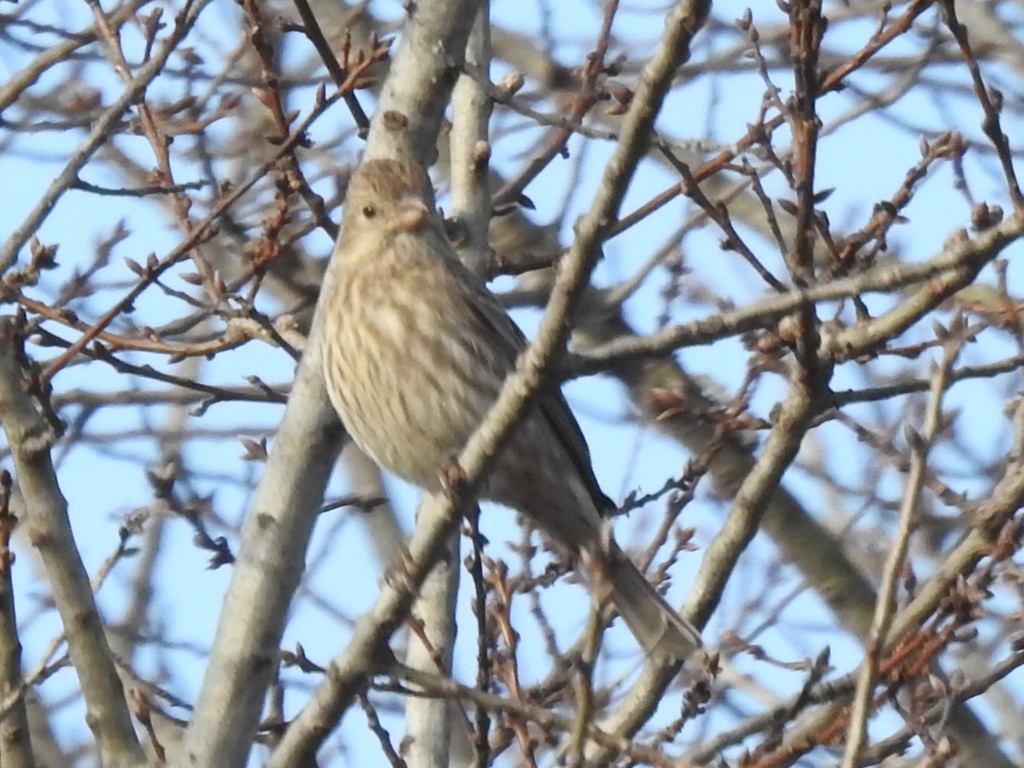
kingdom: Animalia
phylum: Chordata
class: Aves
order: Passeriformes
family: Fringillidae
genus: Haemorhous
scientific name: Haemorhous mexicanus
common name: House finch
